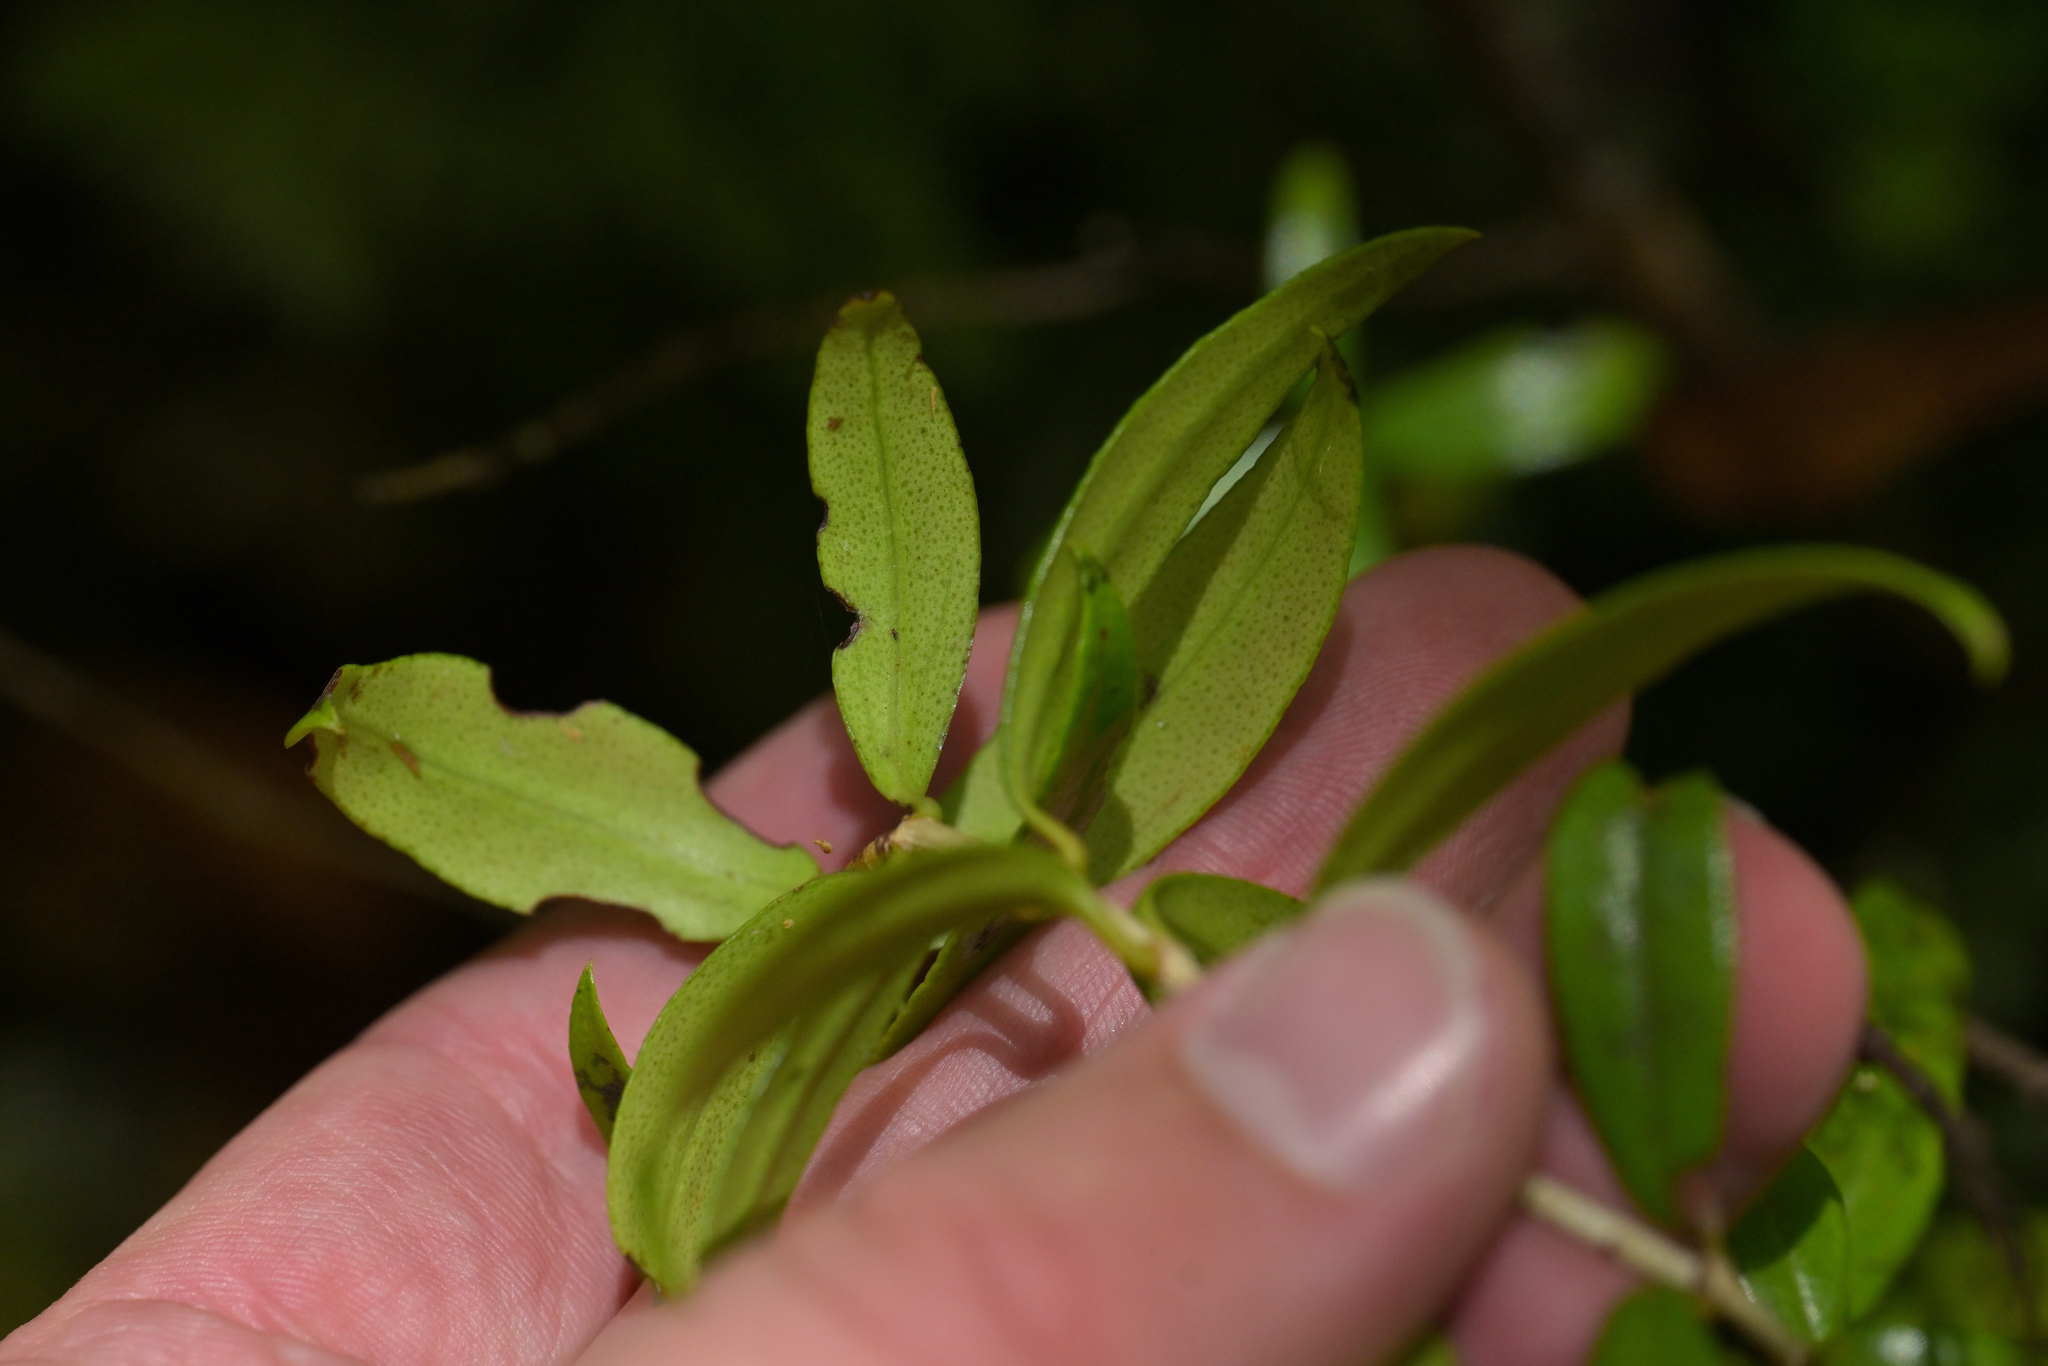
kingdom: Plantae
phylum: Tracheophyta
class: Magnoliopsida
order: Myrtales
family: Myrtaceae
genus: Metrosideros
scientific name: Metrosideros umbellata
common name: Southern rata
